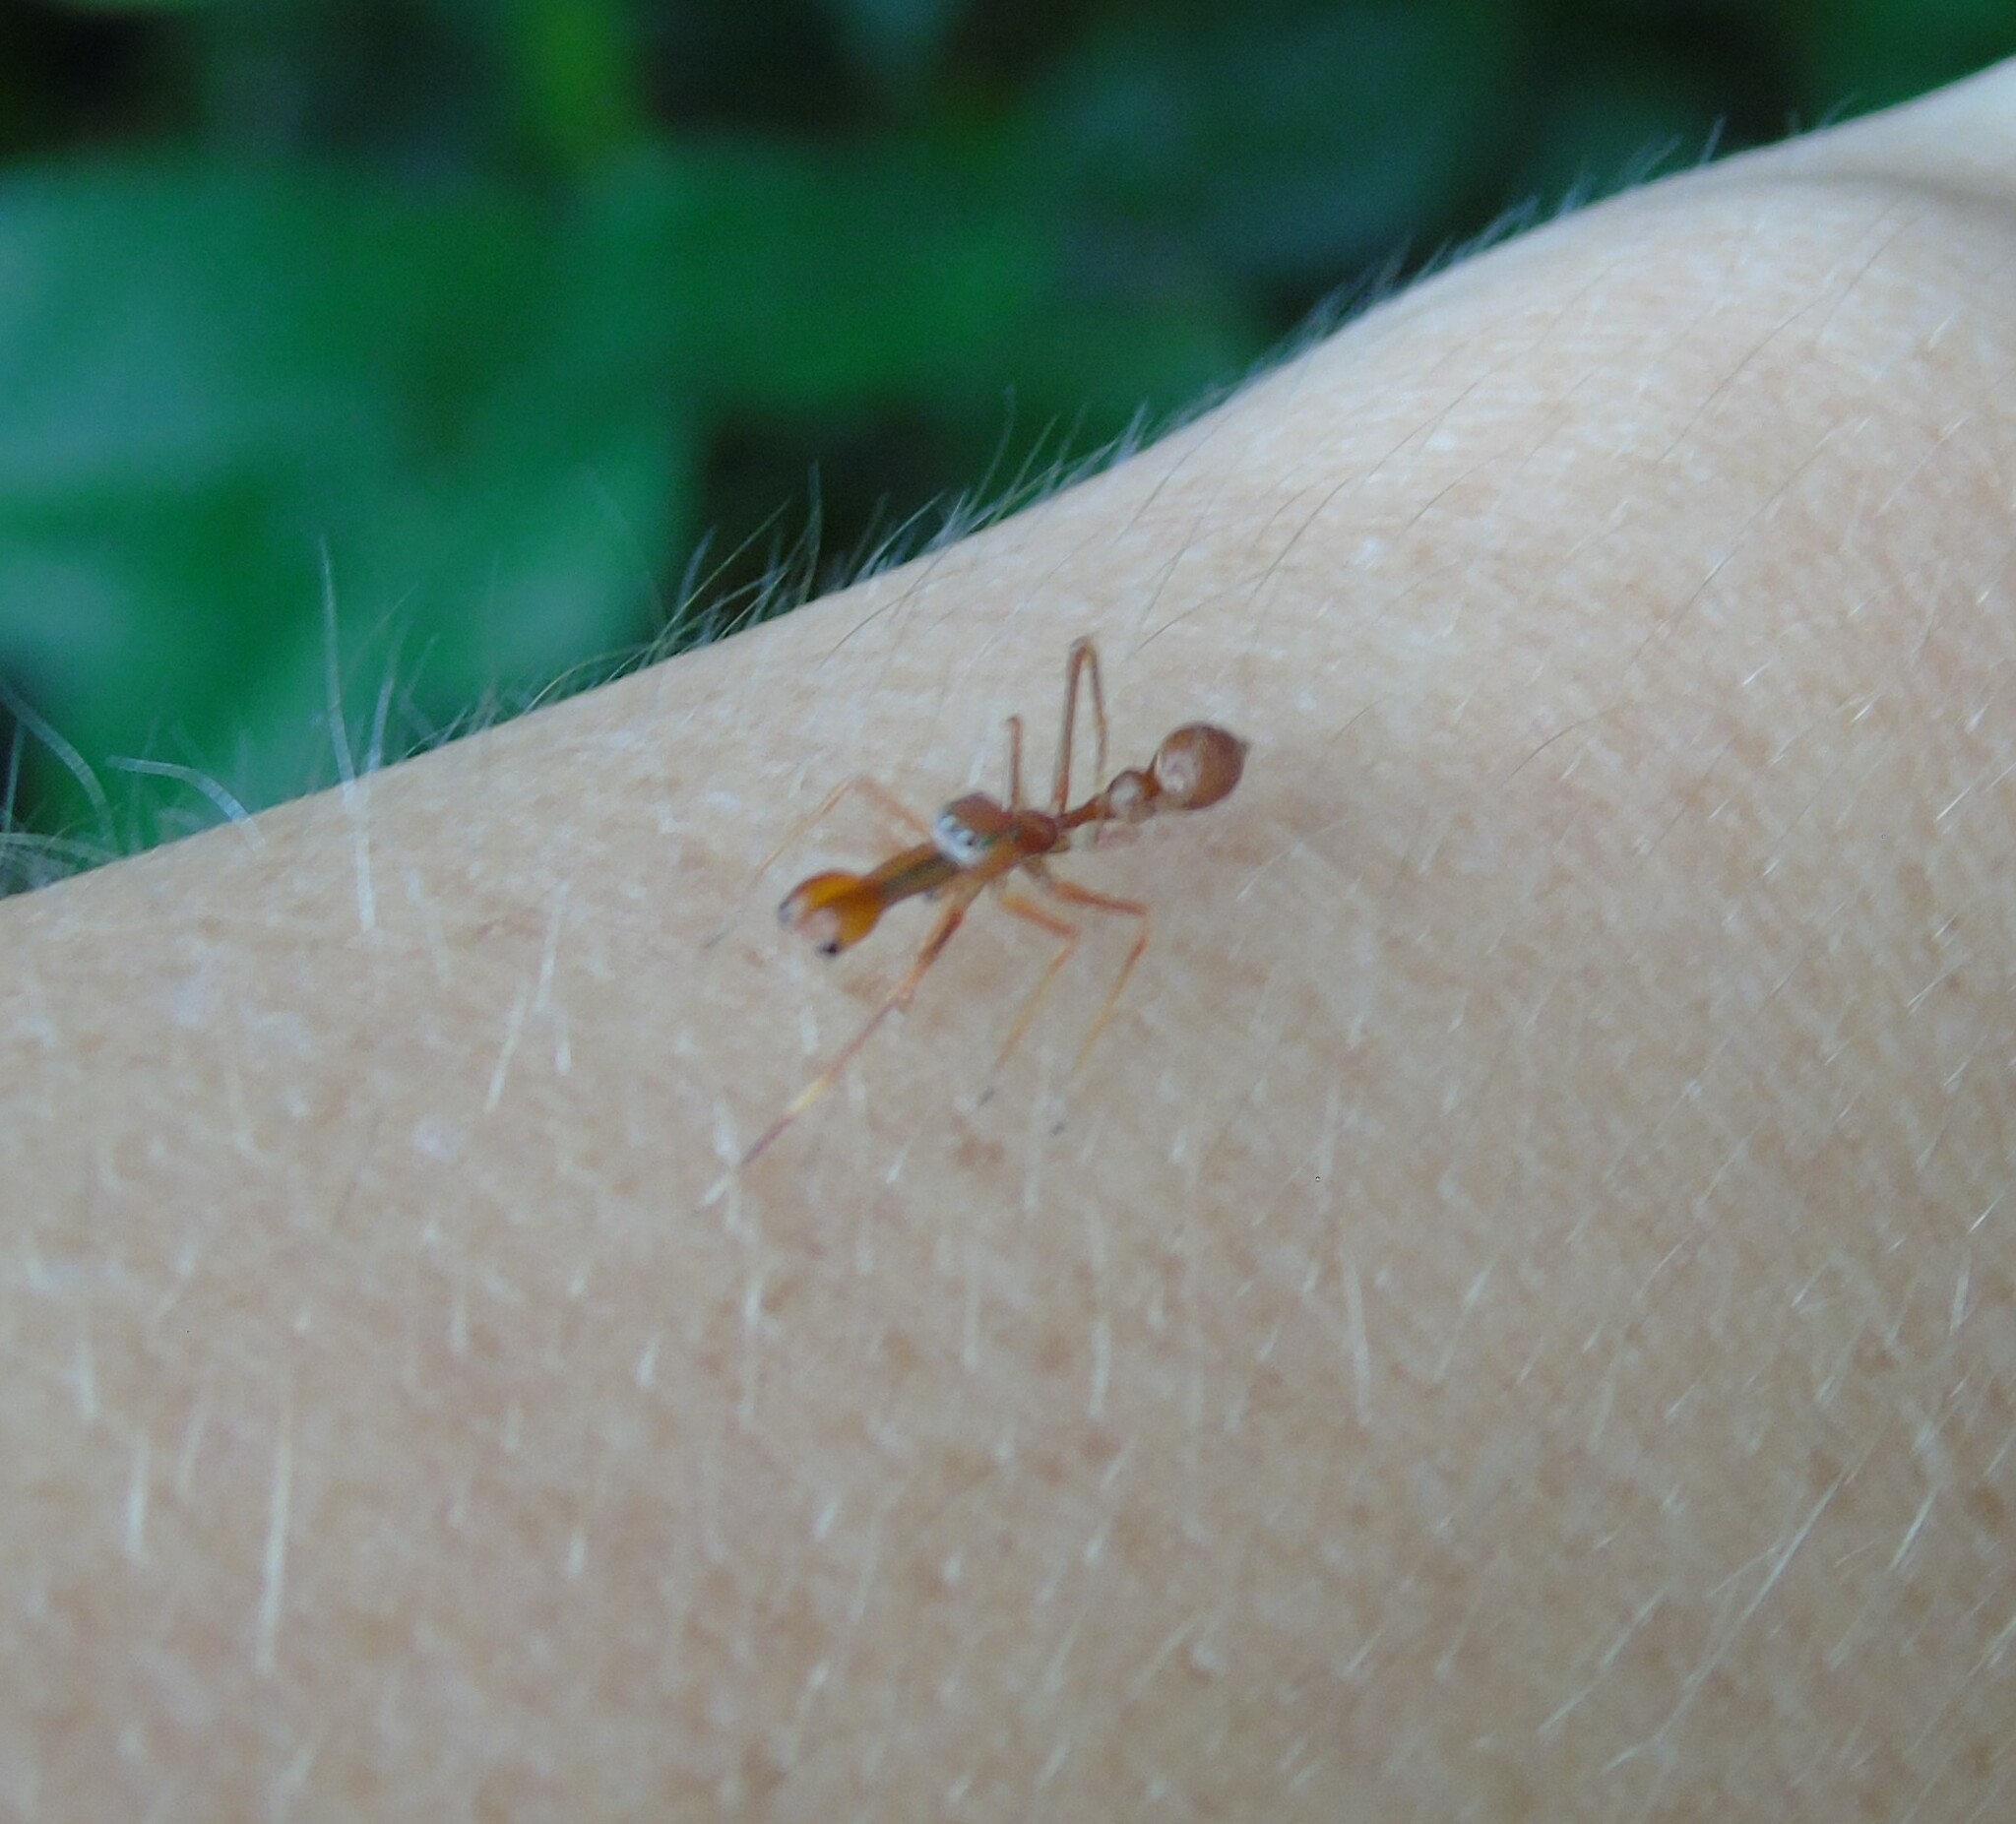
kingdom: Animalia
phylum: Arthropoda
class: Arachnida
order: Araneae
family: Salticidae
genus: Myrmaplata
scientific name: Myrmaplata plataleoides
